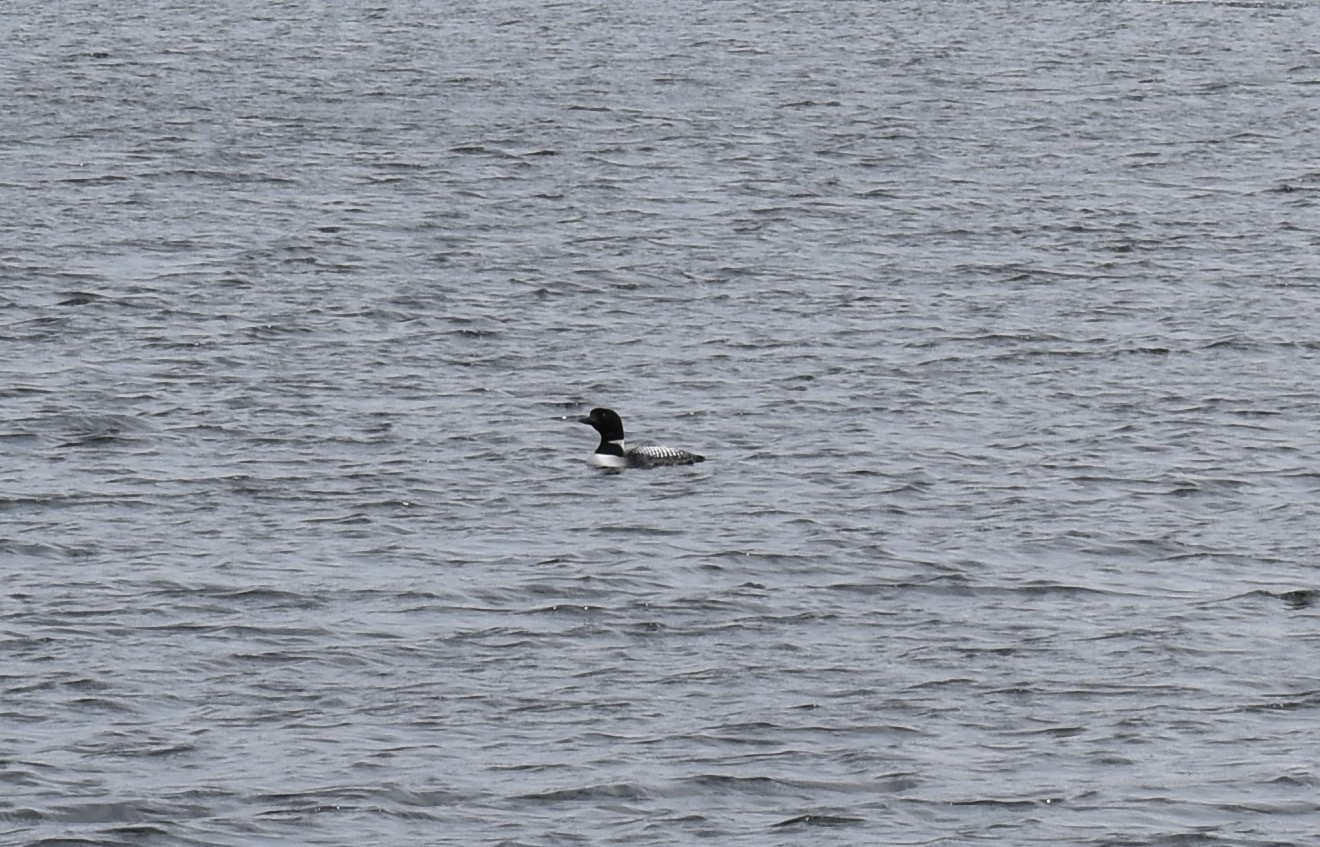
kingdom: Animalia
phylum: Chordata
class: Aves
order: Gaviiformes
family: Gaviidae
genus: Gavia
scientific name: Gavia immer
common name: Common loon
